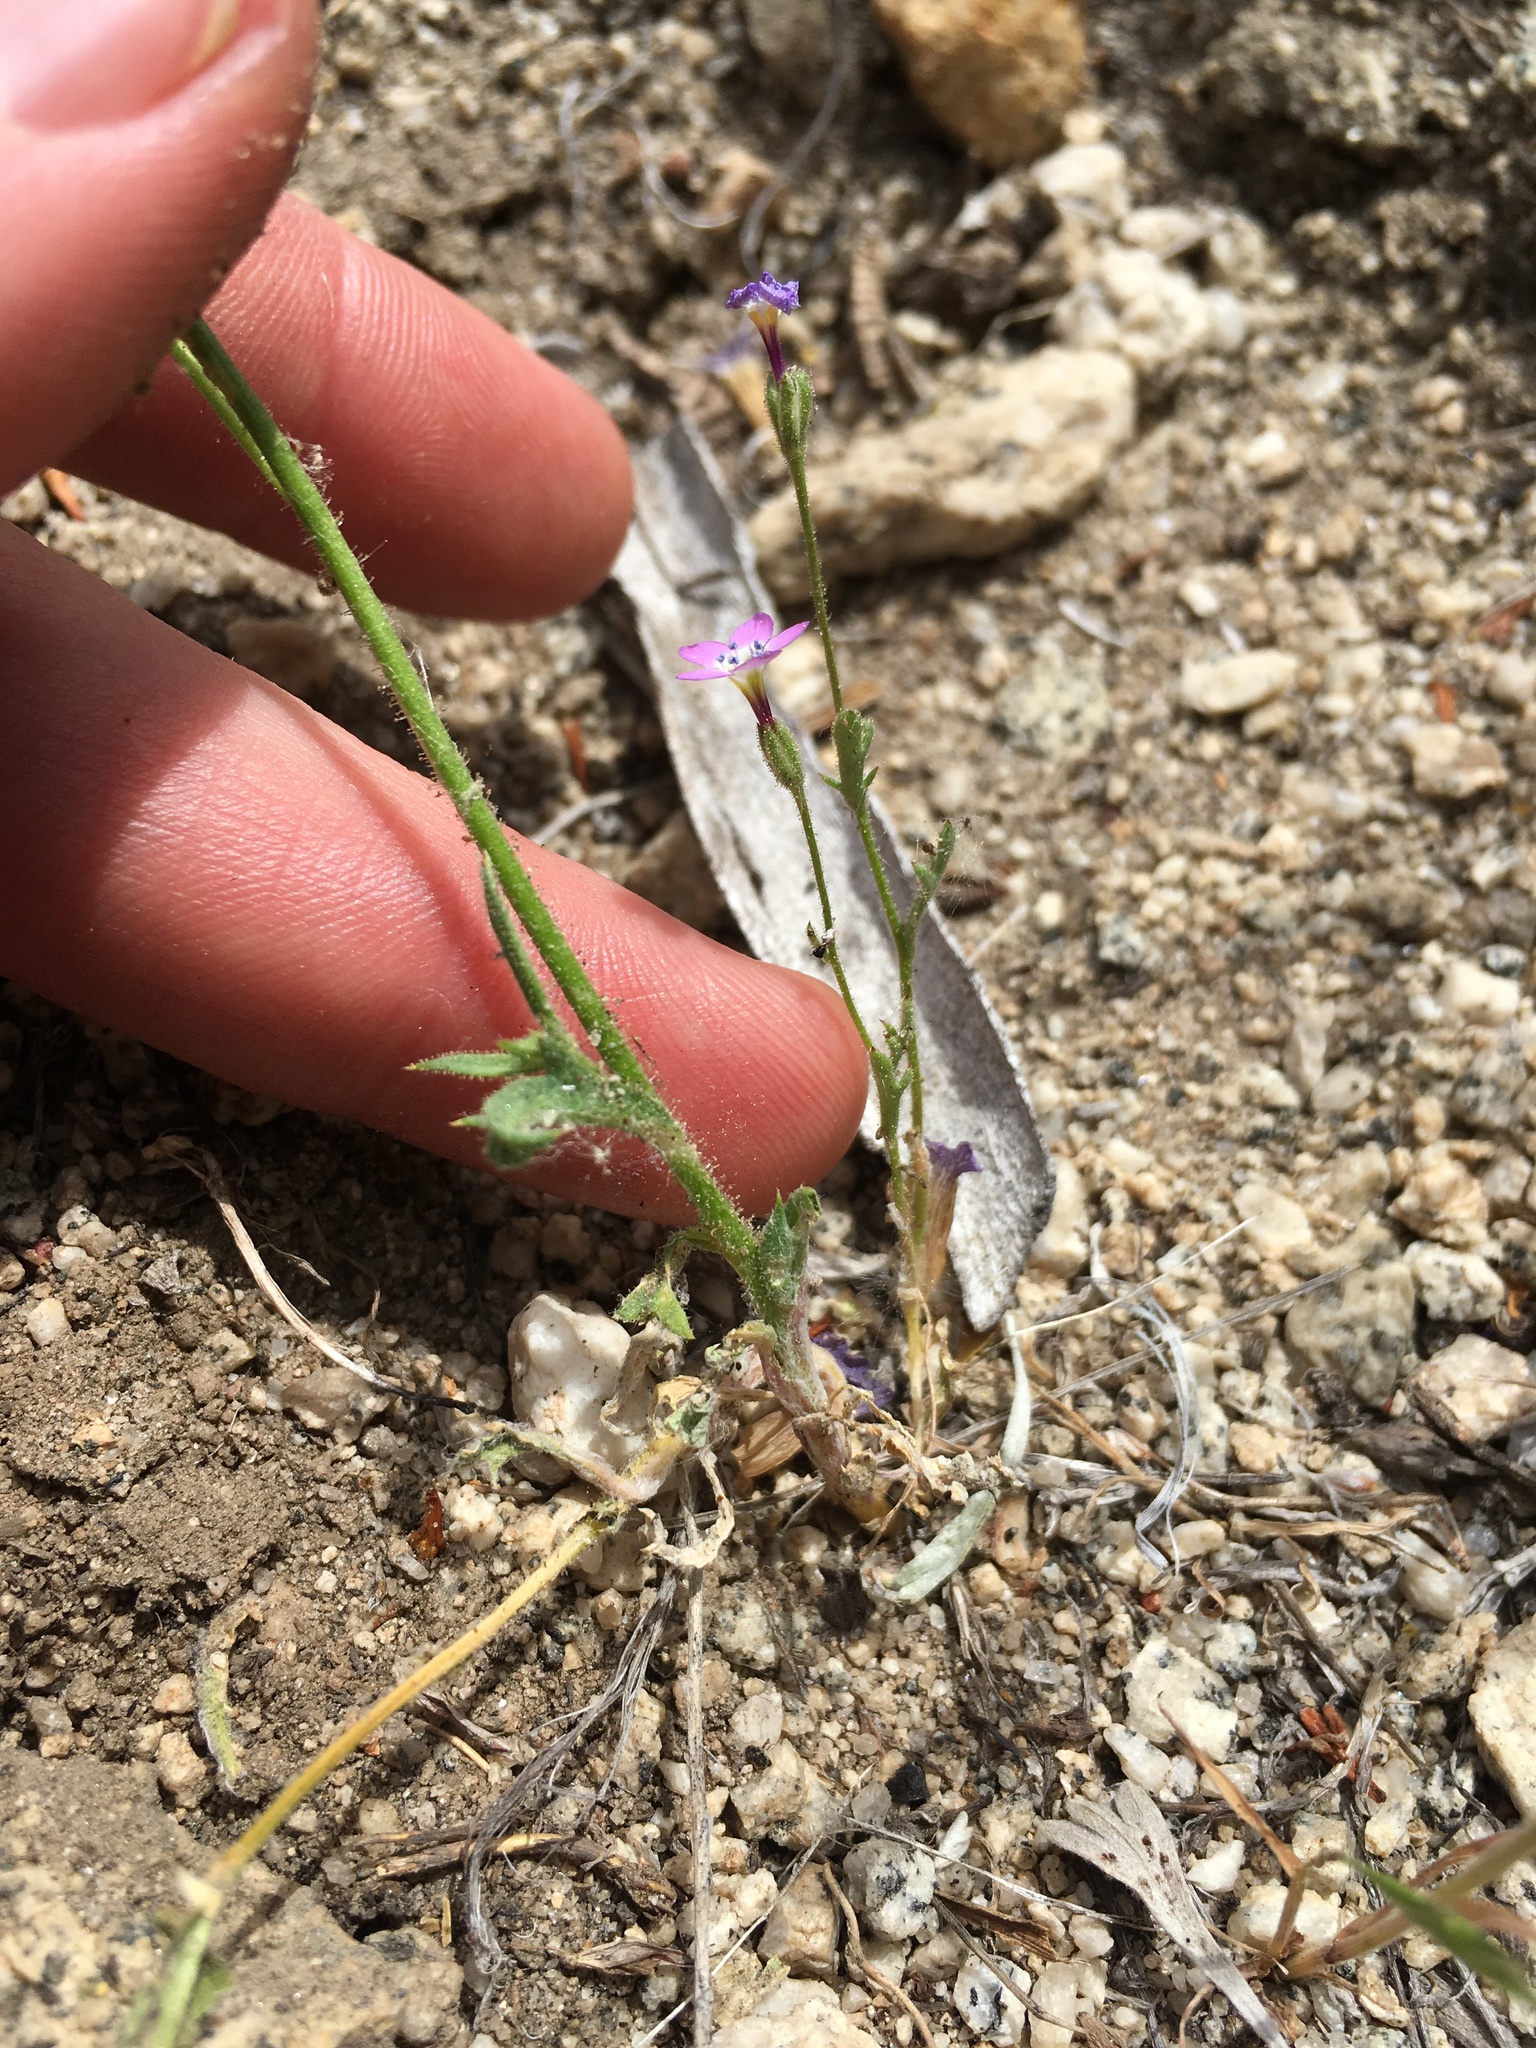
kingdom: Plantae
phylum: Tracheophyta
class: Magnoliopsida
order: Ericales
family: Polemoniaceae
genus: Gilia
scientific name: Gilia cana
